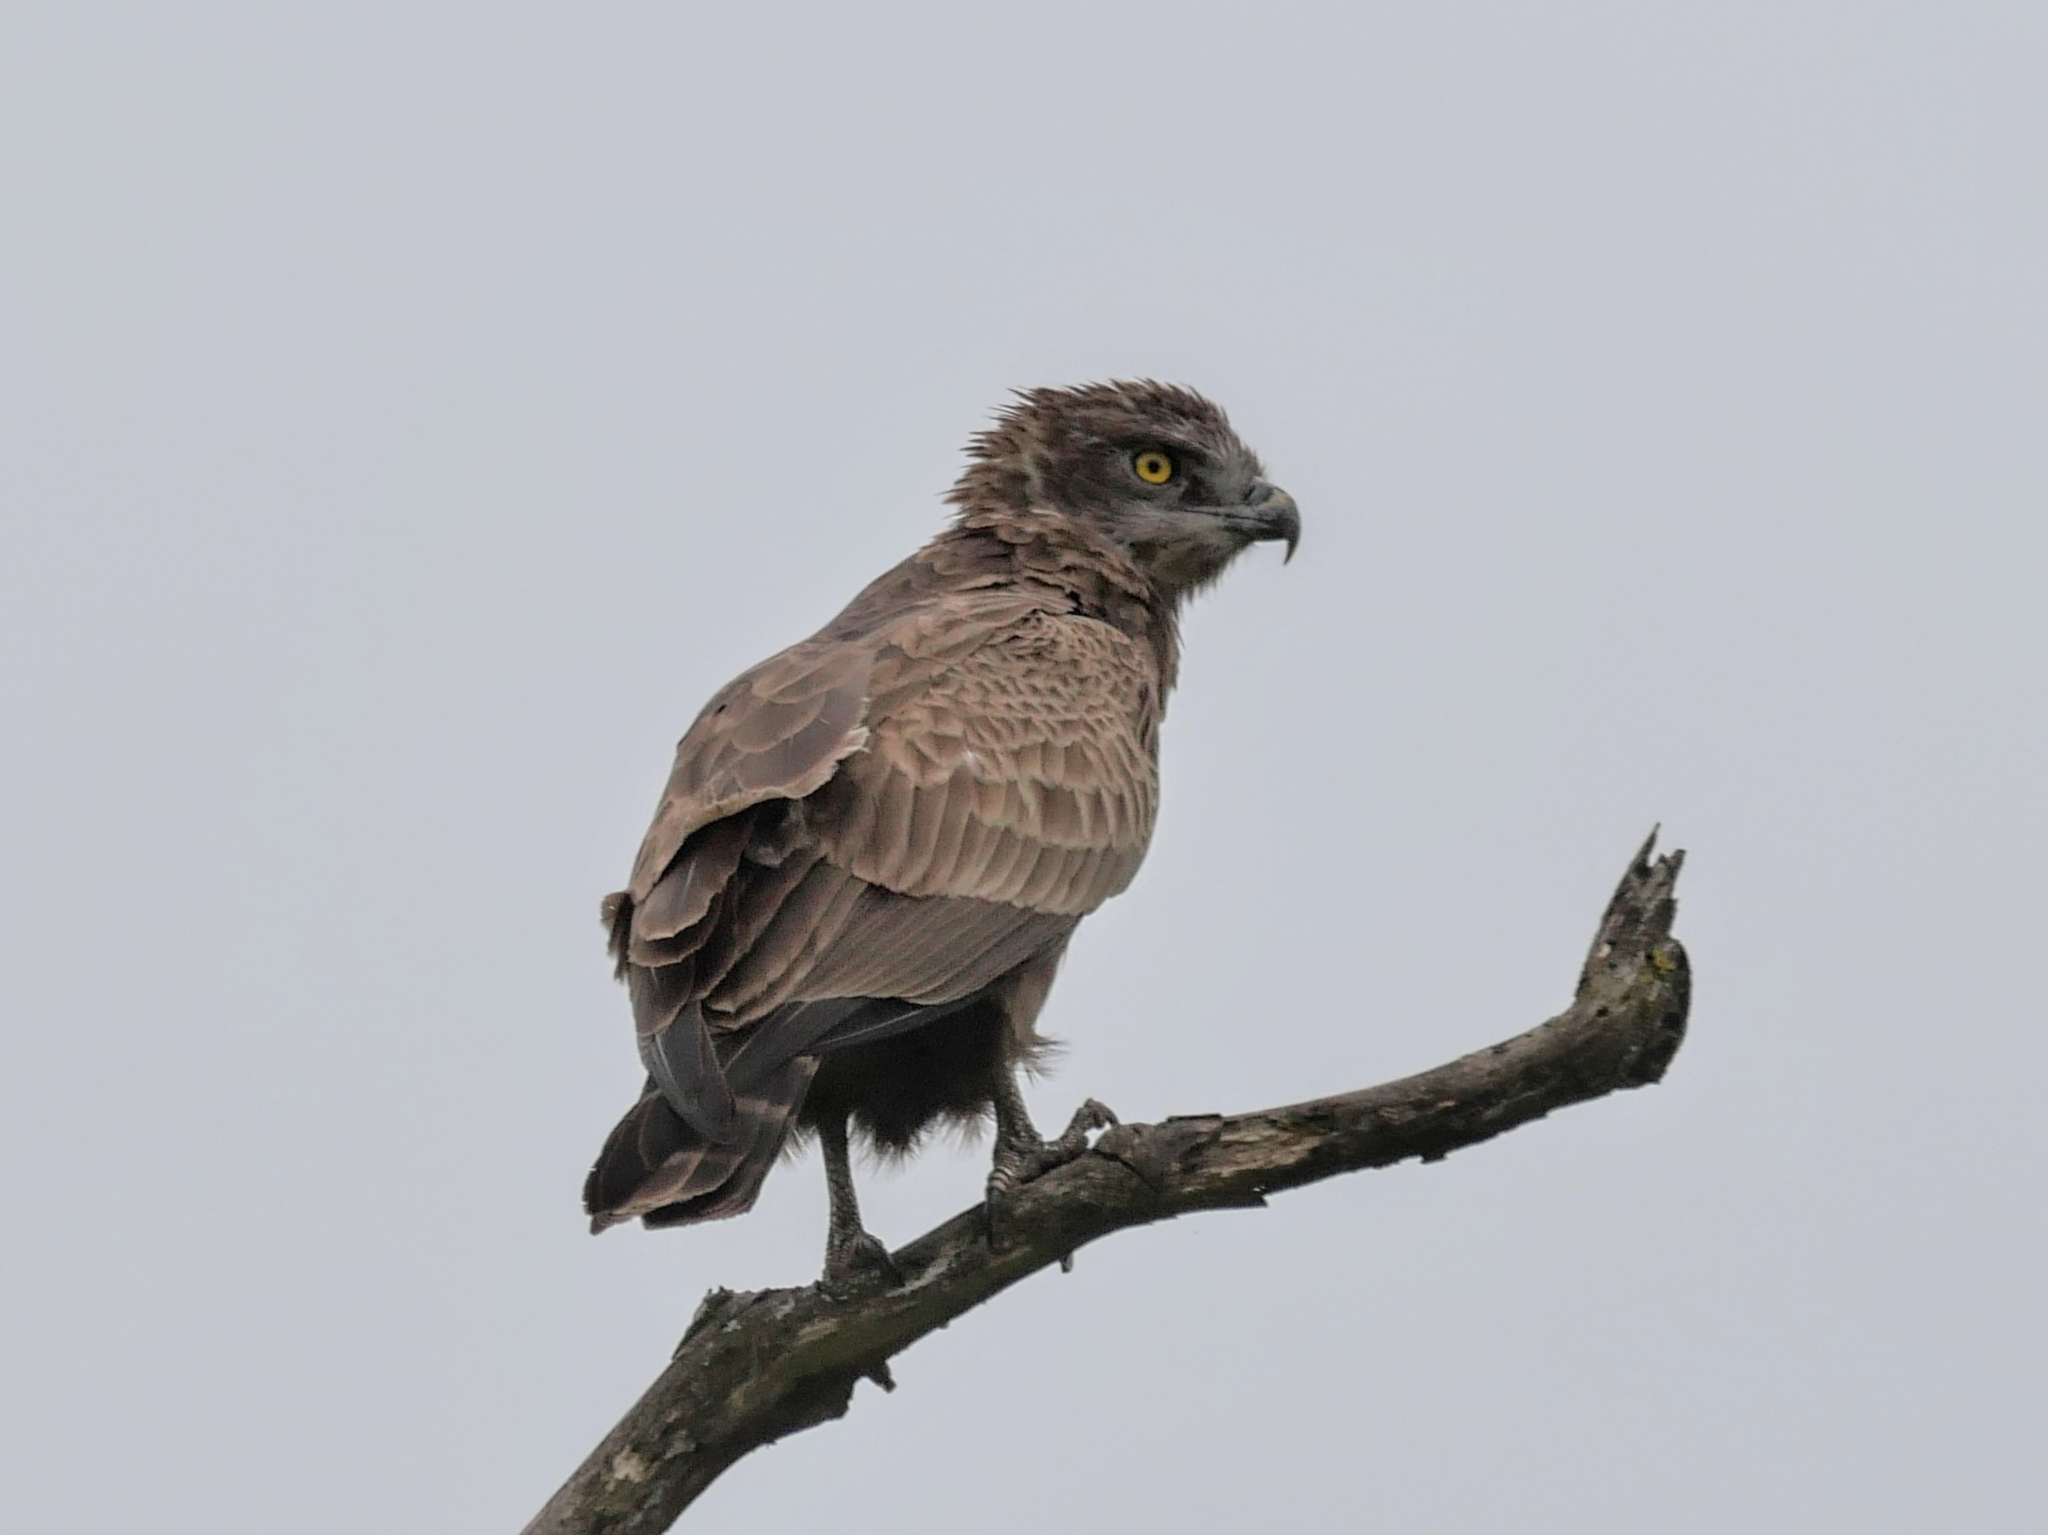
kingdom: Animalia
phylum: Chordata
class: Aves
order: Accipitriformes
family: Accipitridae
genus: Circaetus
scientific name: Circaetus cinereus
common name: Brown snake eagle
